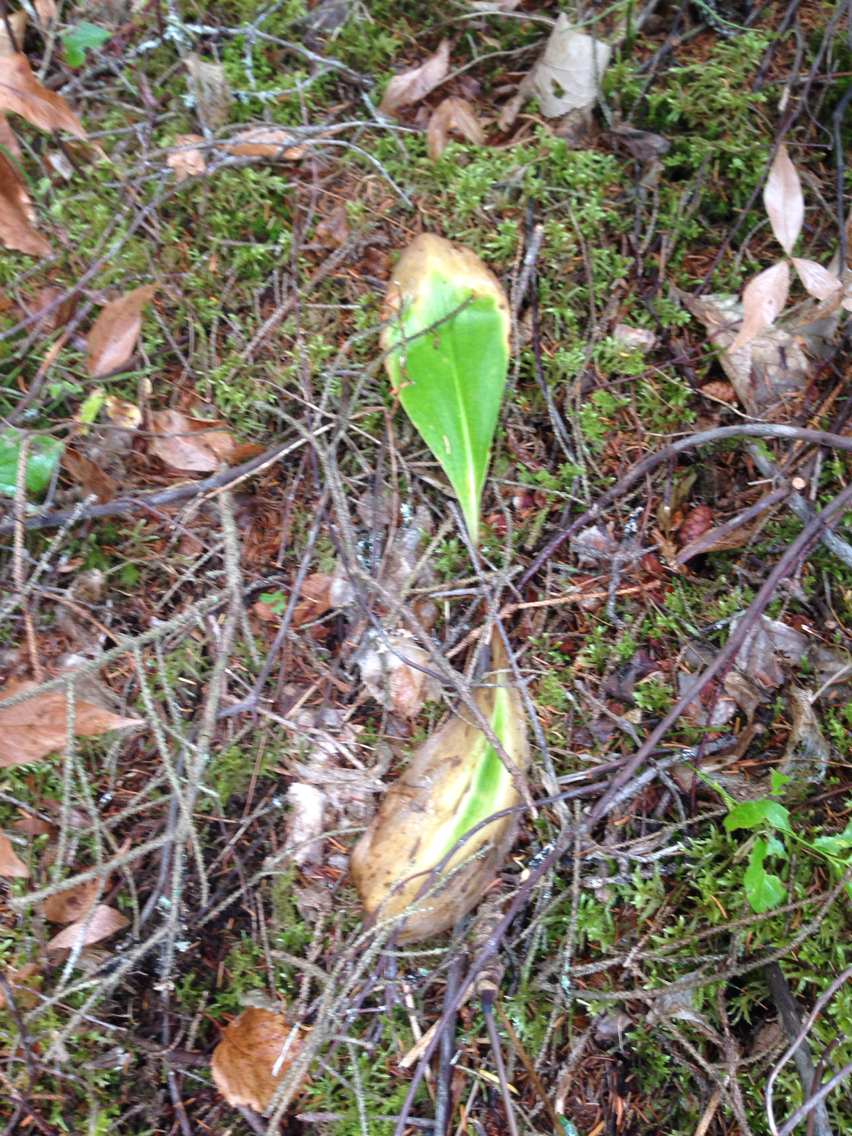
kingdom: Plantae
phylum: Tracheophyta
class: Liliopsida
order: Liliales
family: Liliaceae
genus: Clintonia
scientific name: Clintonia borealis
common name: Yellow clintonia
